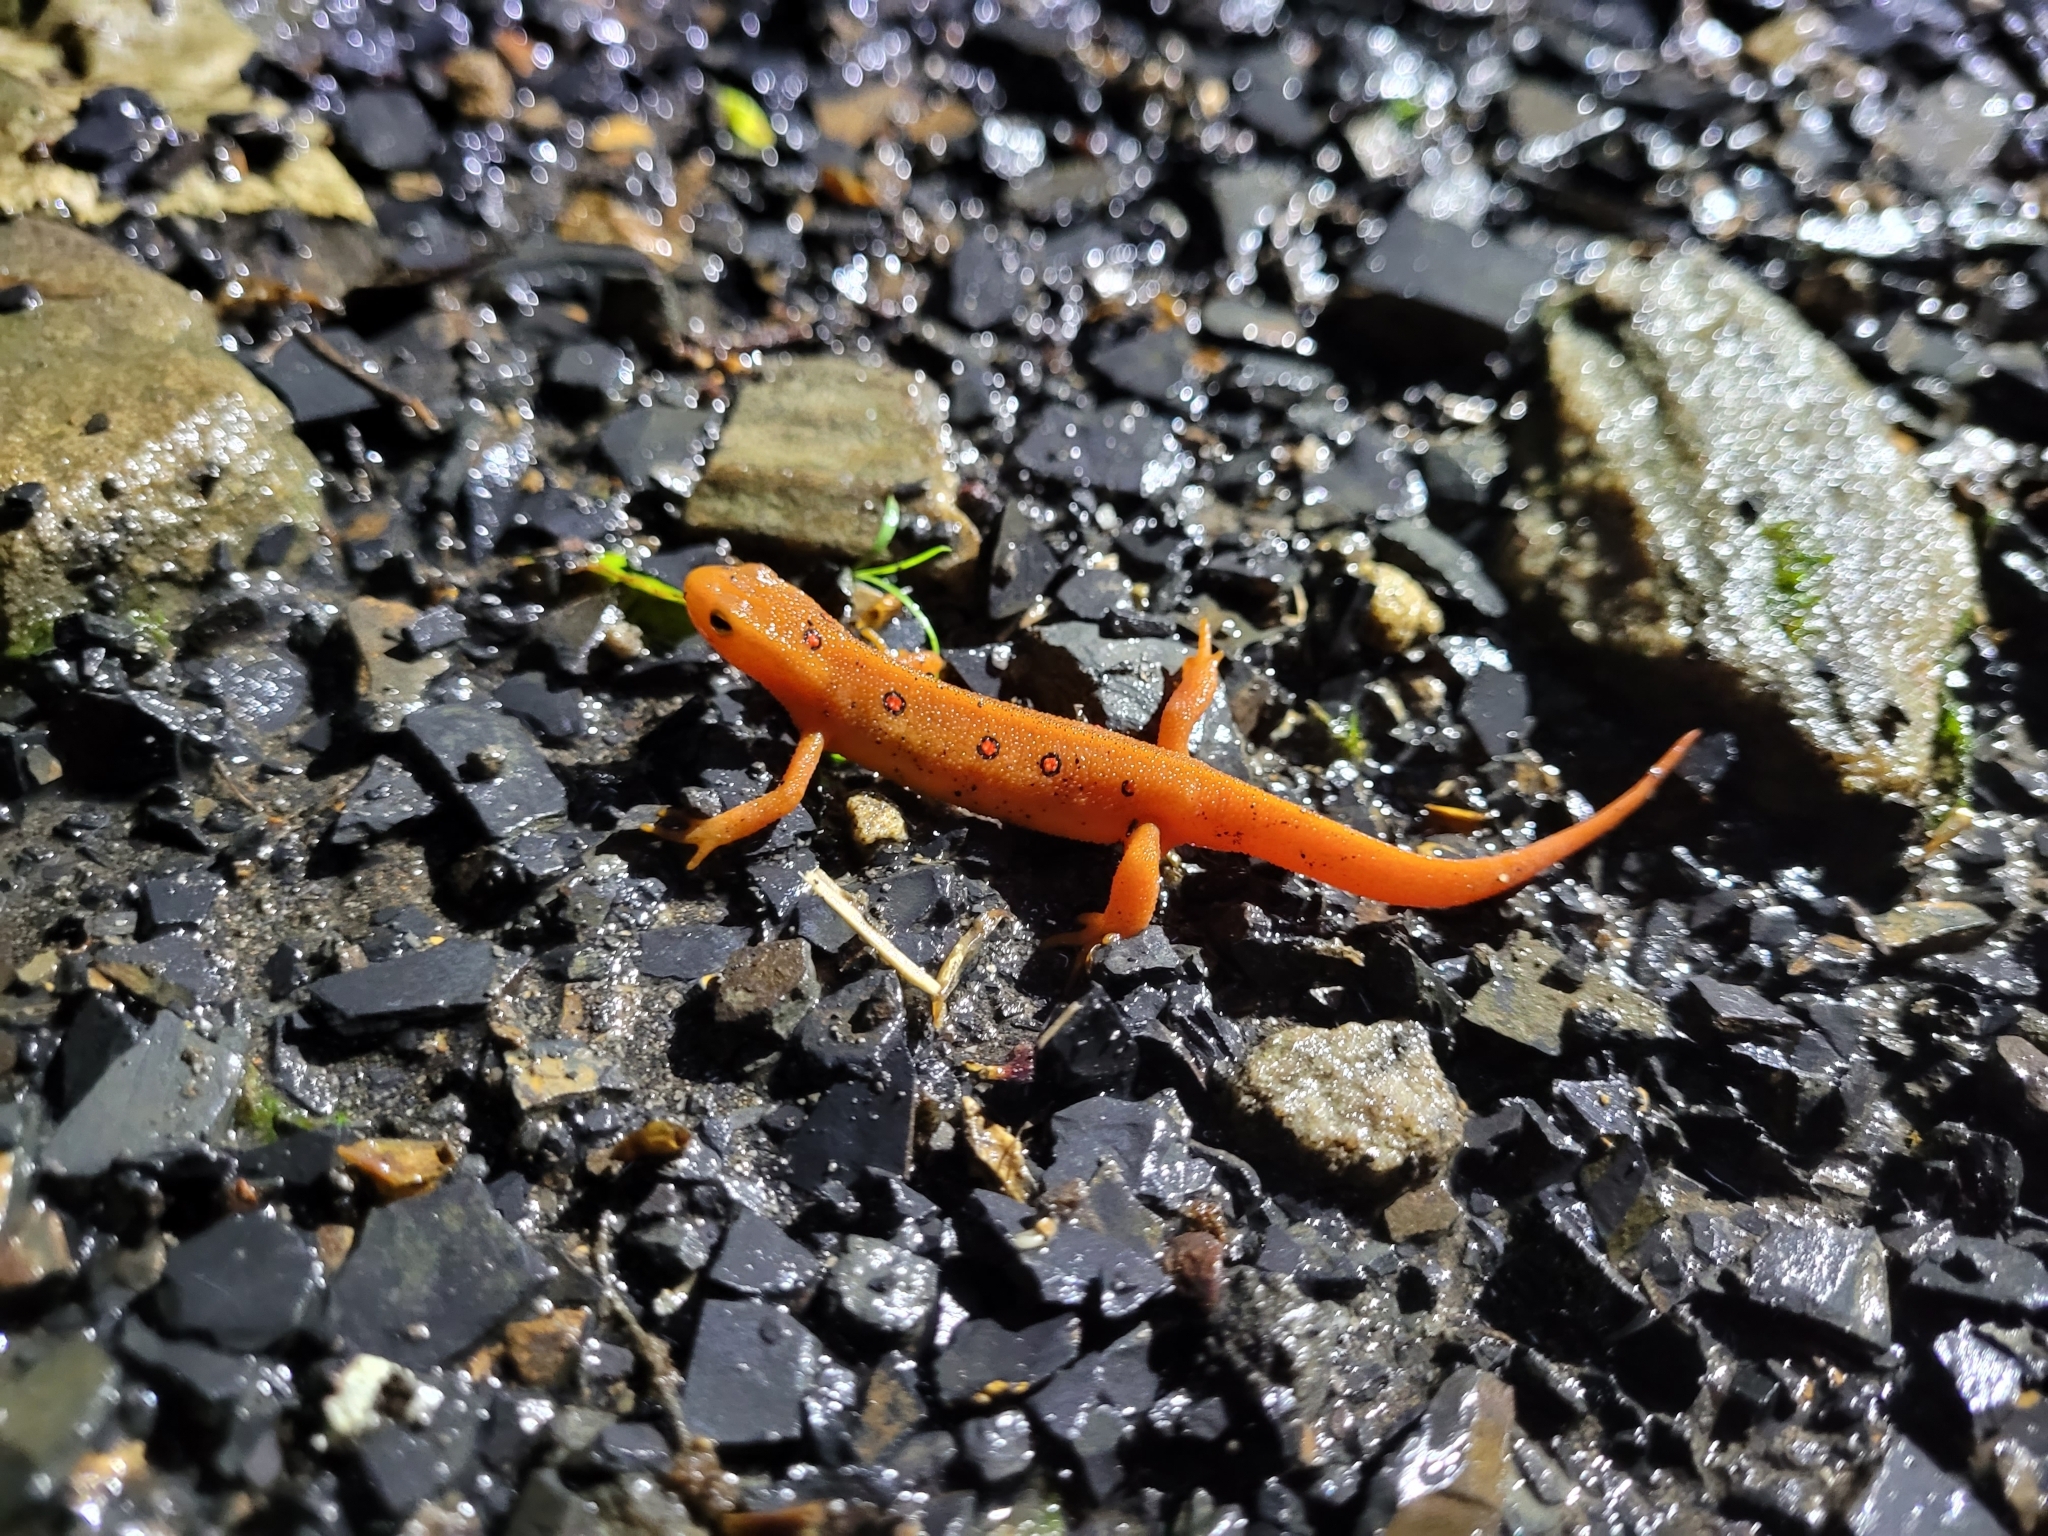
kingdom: Animalia
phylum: Chordata
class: Amphibia
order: Caudata
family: Salamandridae
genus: Notophthalmus
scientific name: Notophthalmus viridescens
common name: Eastern newt
